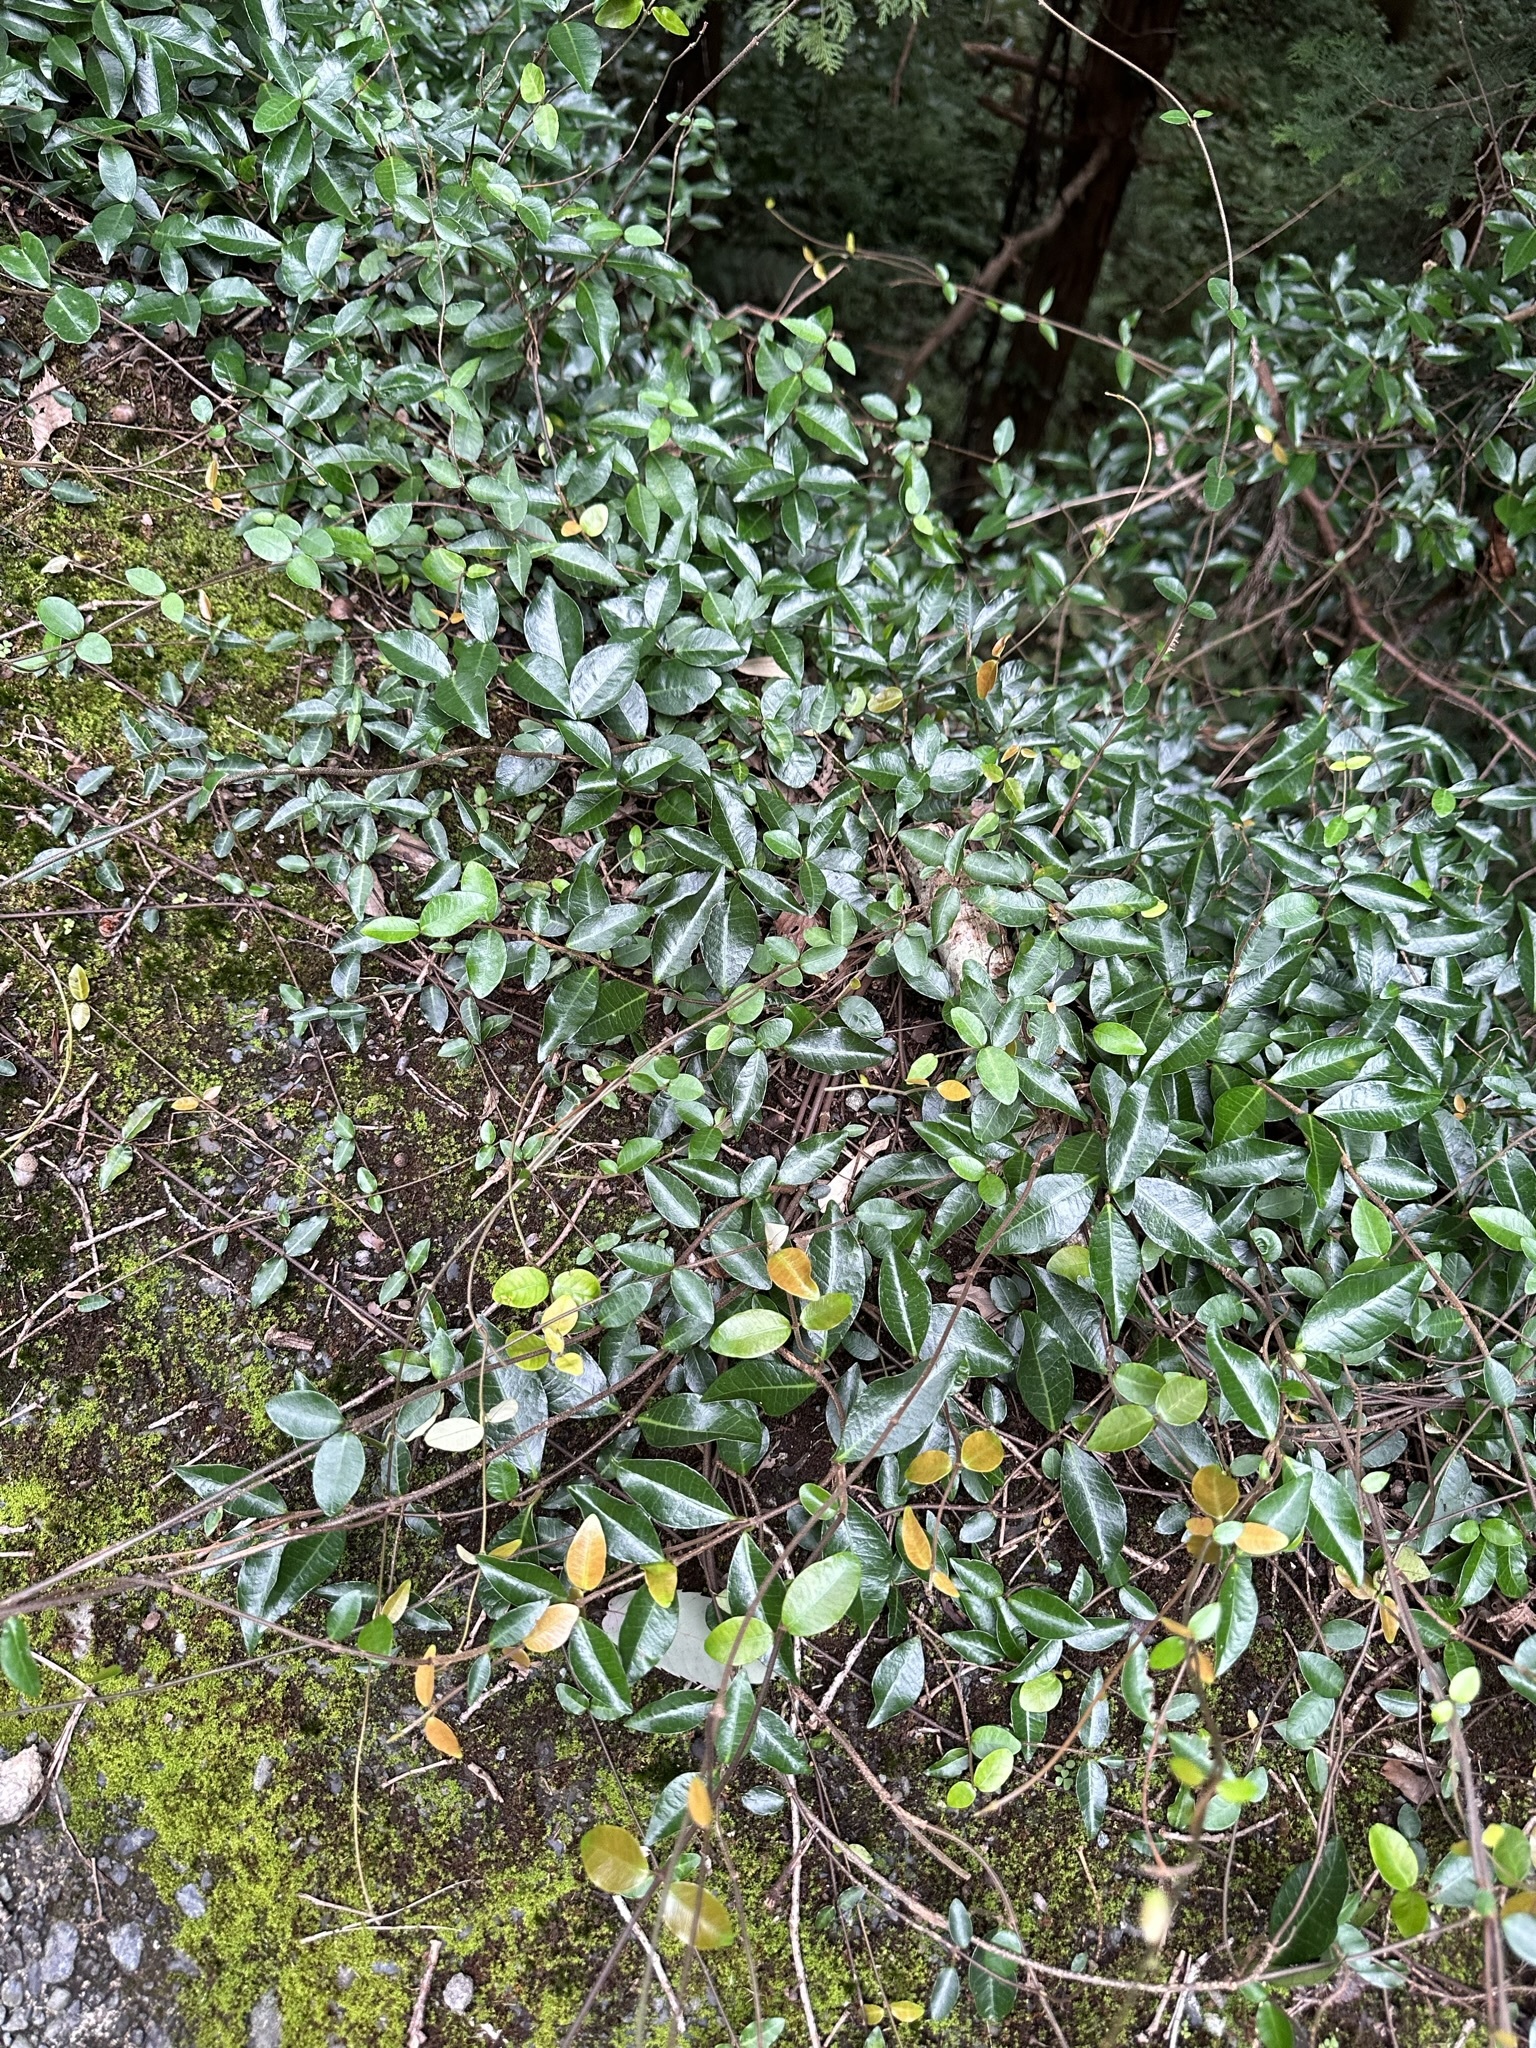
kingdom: Plantae
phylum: Tracheophyta
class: Magnoliopsida
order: Gentianales
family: Apocynaceae
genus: Trachelospermum
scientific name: Trachelospermum asiaticum
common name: Asiatic jasmine
